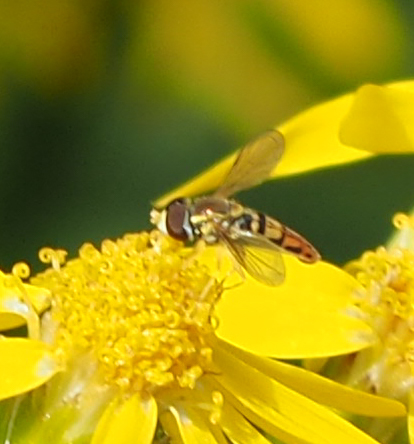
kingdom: Animalia
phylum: Arthropoda
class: Insecta
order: Diptera
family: Syrphidae
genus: Toxomerus
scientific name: Toxomerus marginatus
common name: Syrphid fly
